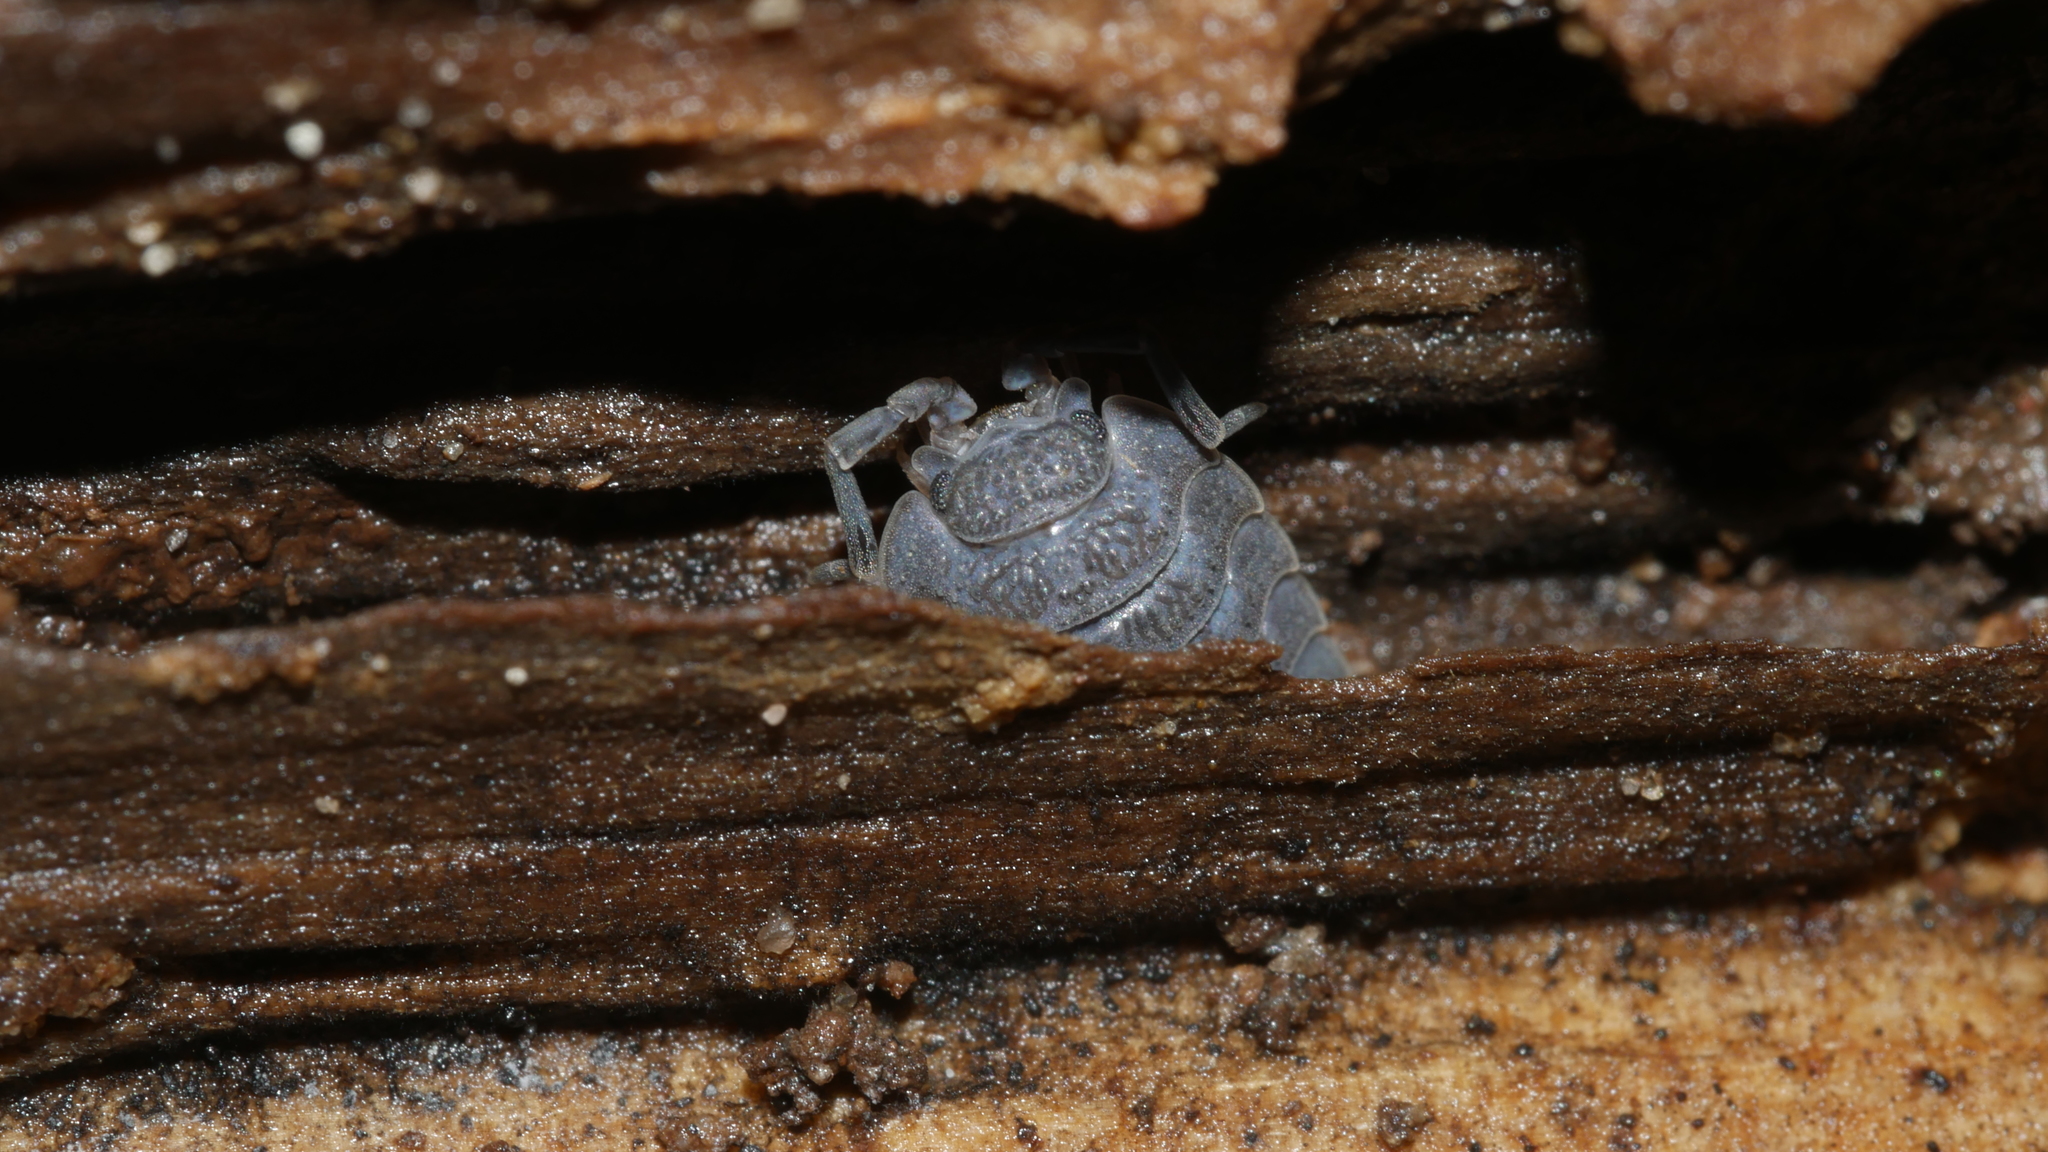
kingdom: Animalia
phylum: Arthropoda
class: Malacostraca
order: Isopoda
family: Porcellionidae
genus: Porcellio
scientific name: Porcellio scaber
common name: Common rough woodlouse
